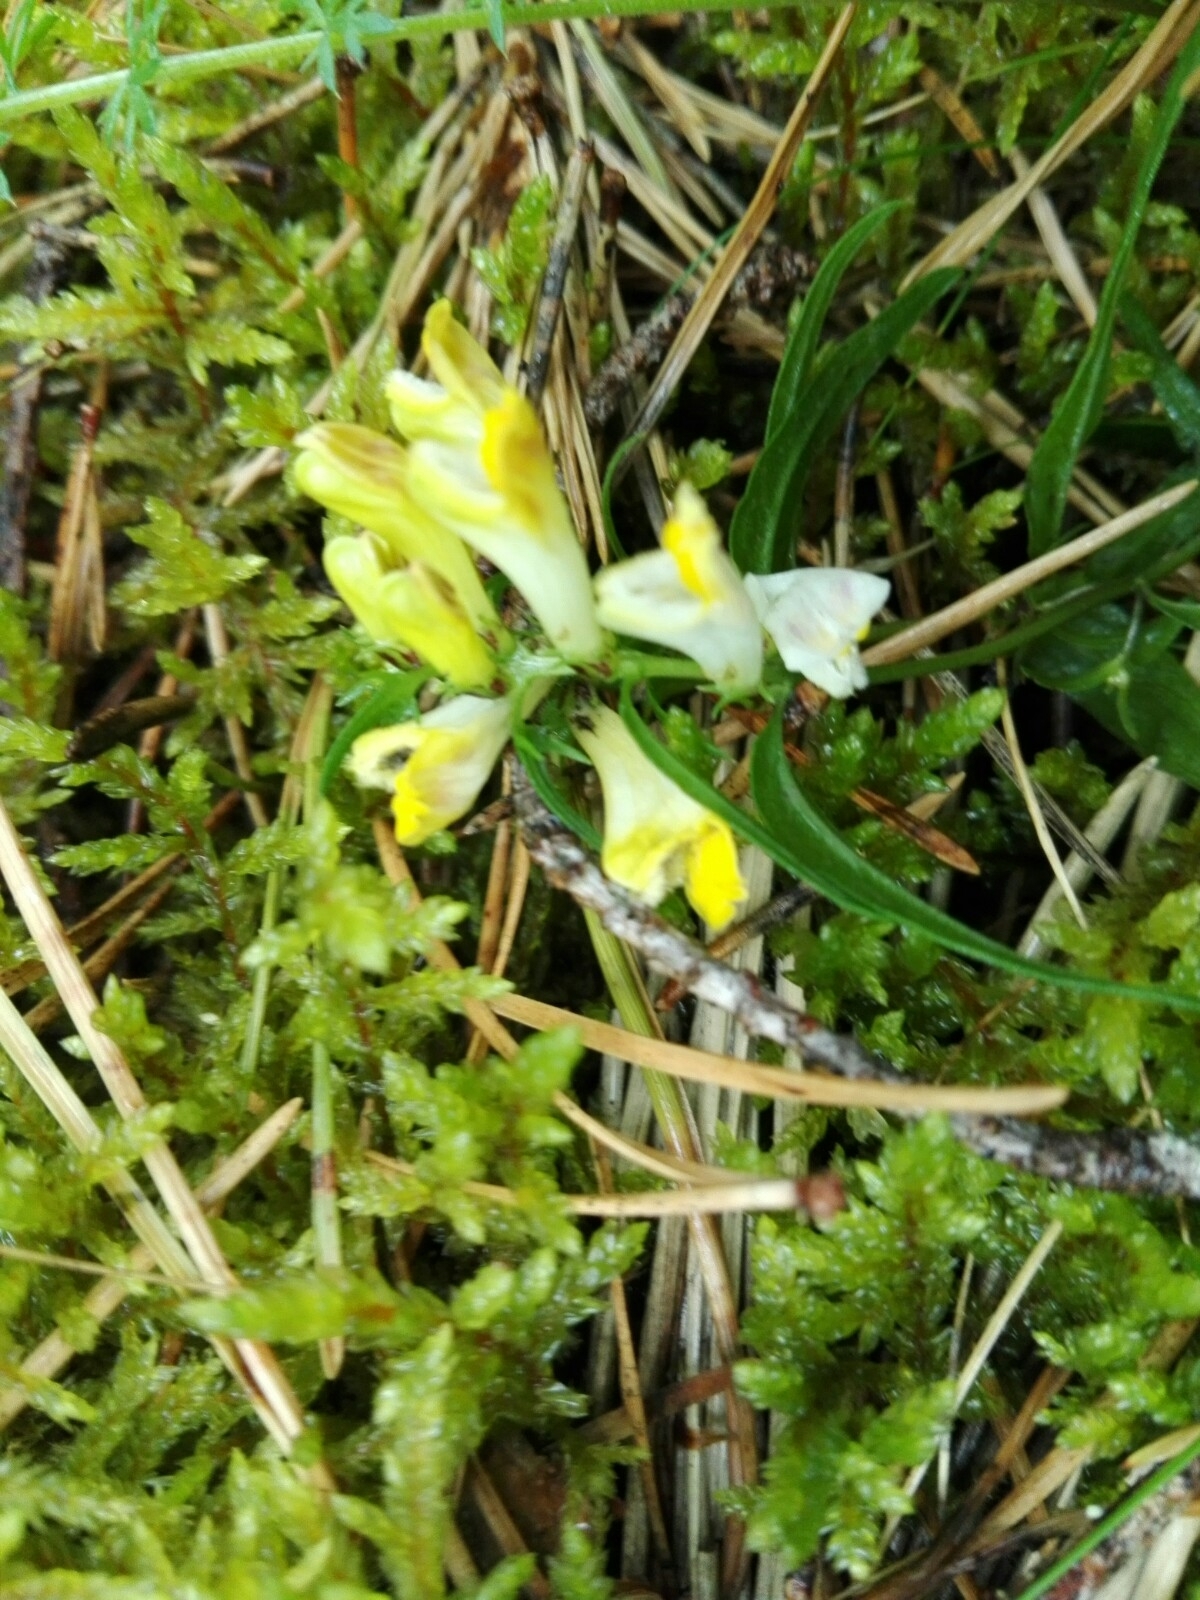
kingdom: Plantae
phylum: Tracheophyta
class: Magnoliopsida
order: Lamiales
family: Orobanchaceae
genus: Melampyrum
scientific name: Melampyrum pratense
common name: Common cow-wheat
